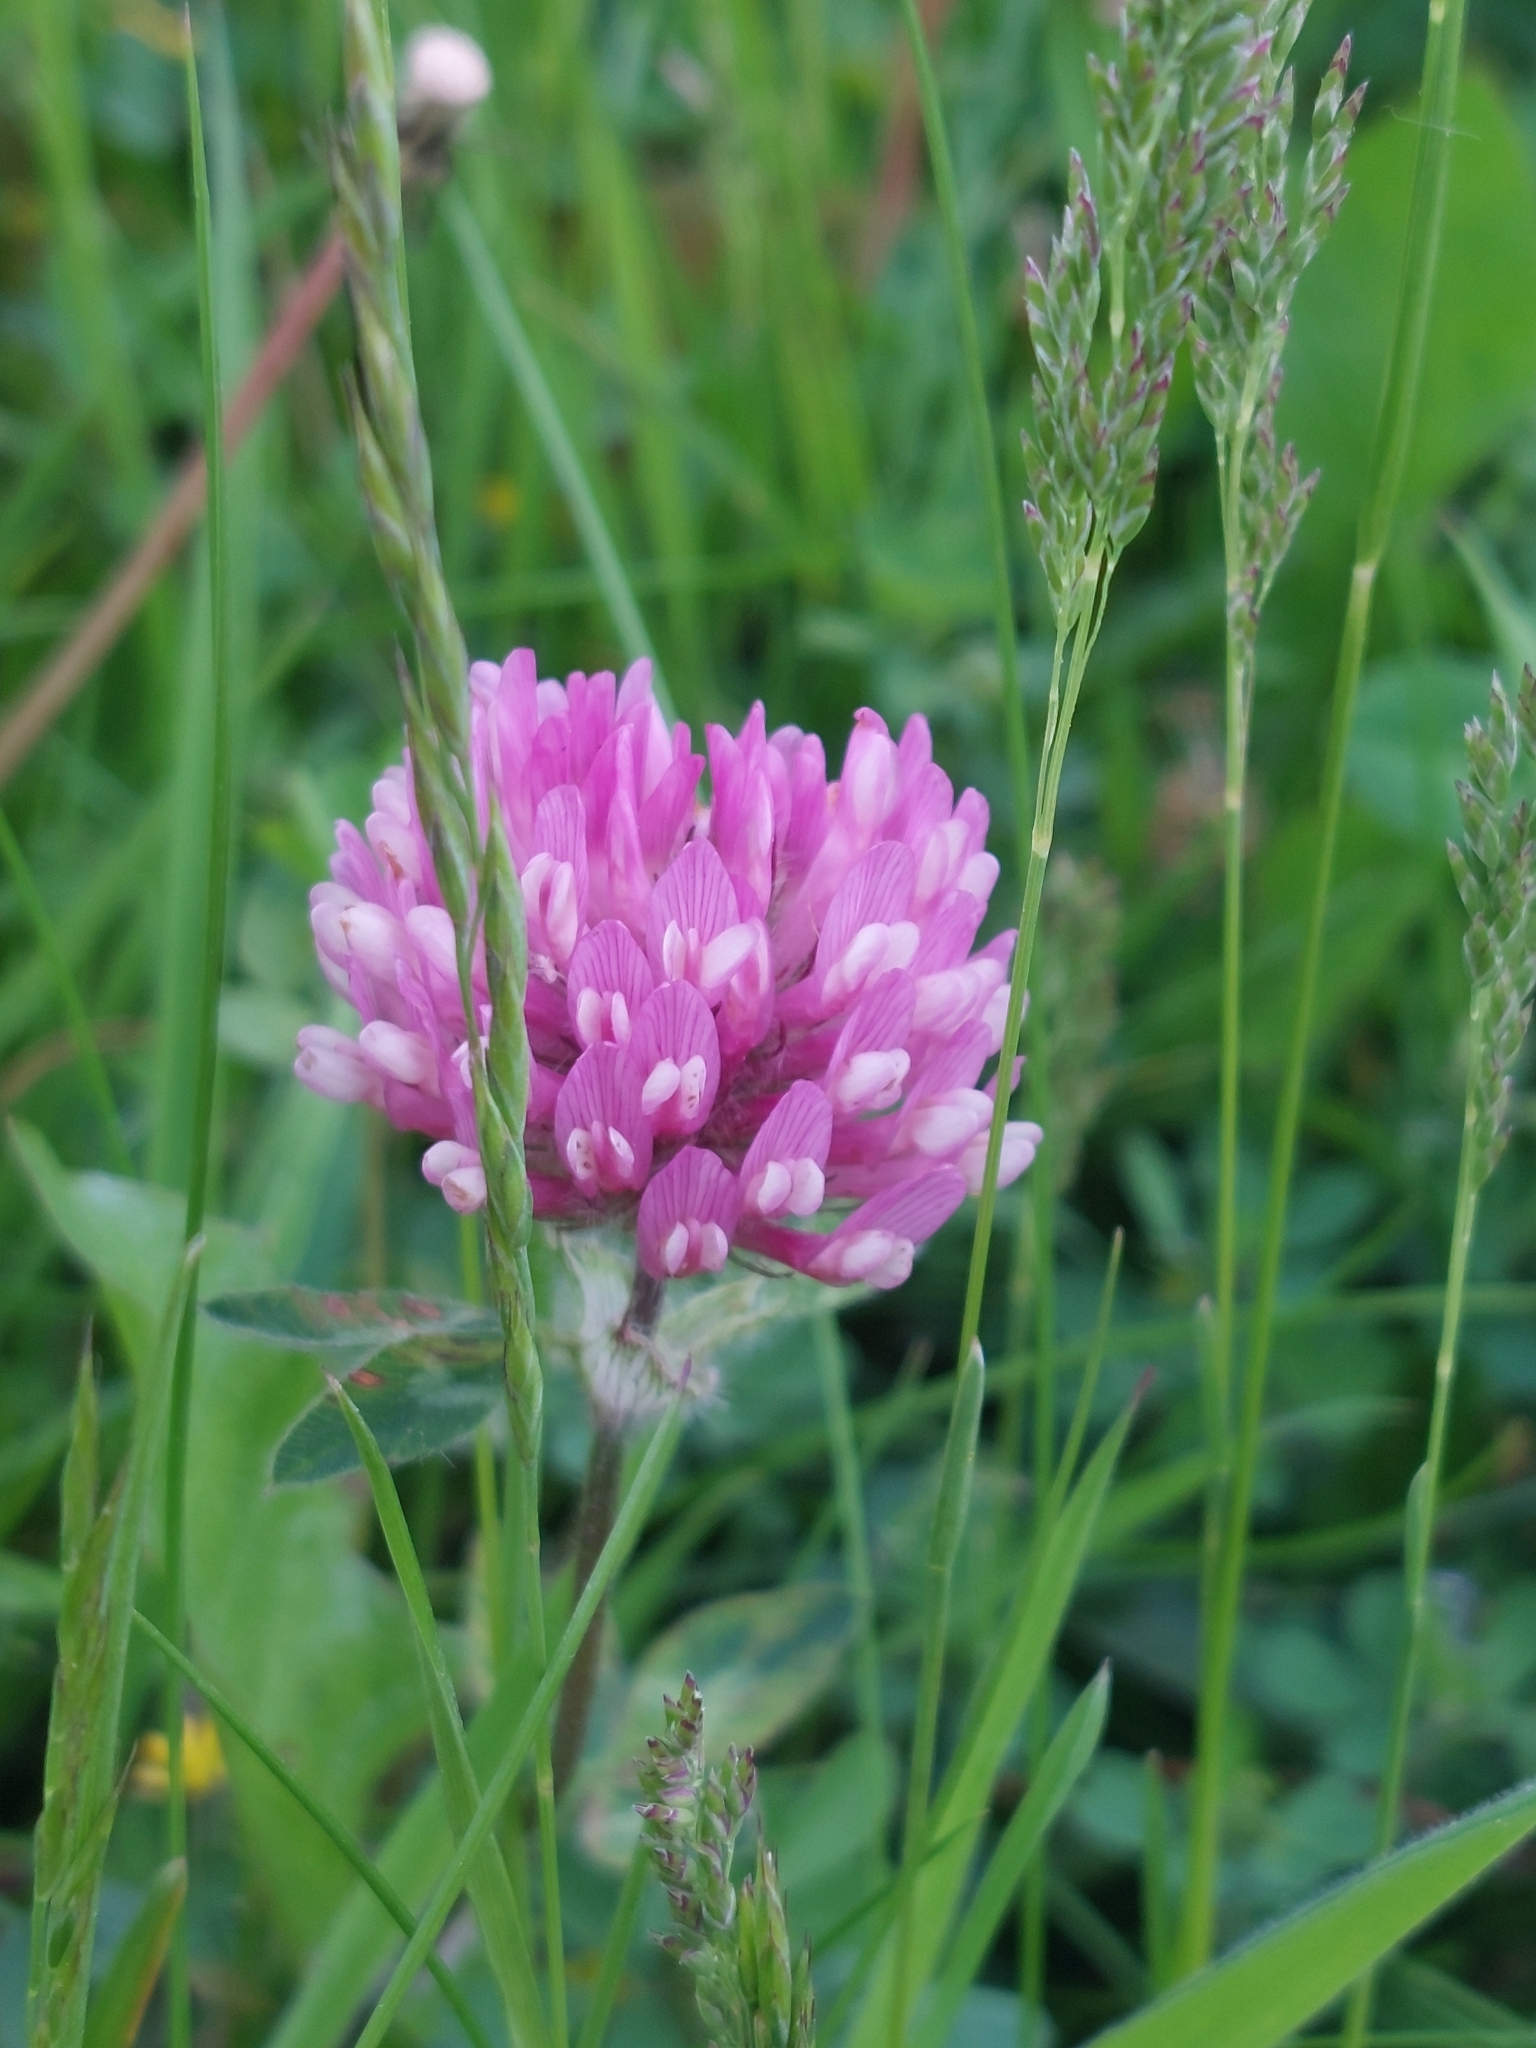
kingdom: Plantae
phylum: Tracheophyta
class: Magnoliopsida
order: Fabales
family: Fabaceae
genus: Trifolium
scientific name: Trifolium pratense
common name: Red clover
